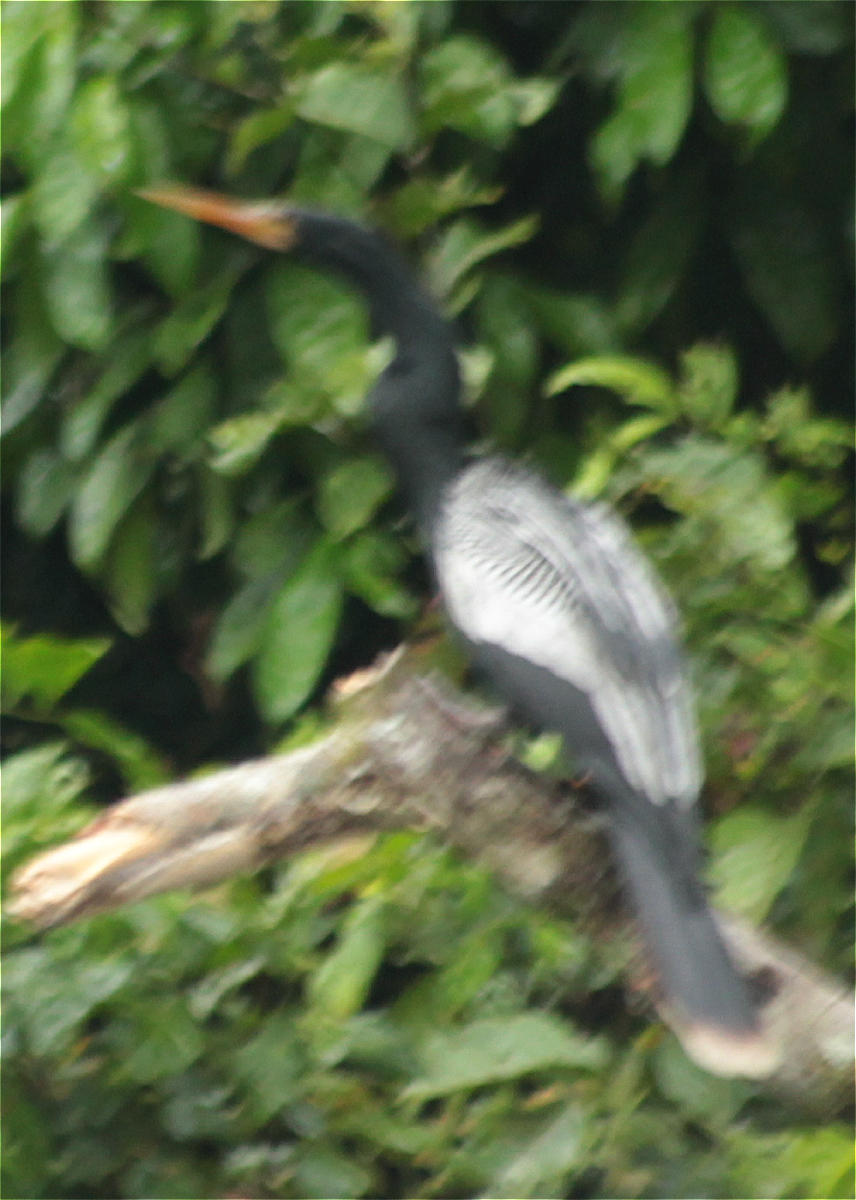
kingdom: Animalia
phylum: Chordata
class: Aves
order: Suliformes
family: Anhingidae
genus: Anhinga
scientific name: Anhinga anhinga
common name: Anhinga
